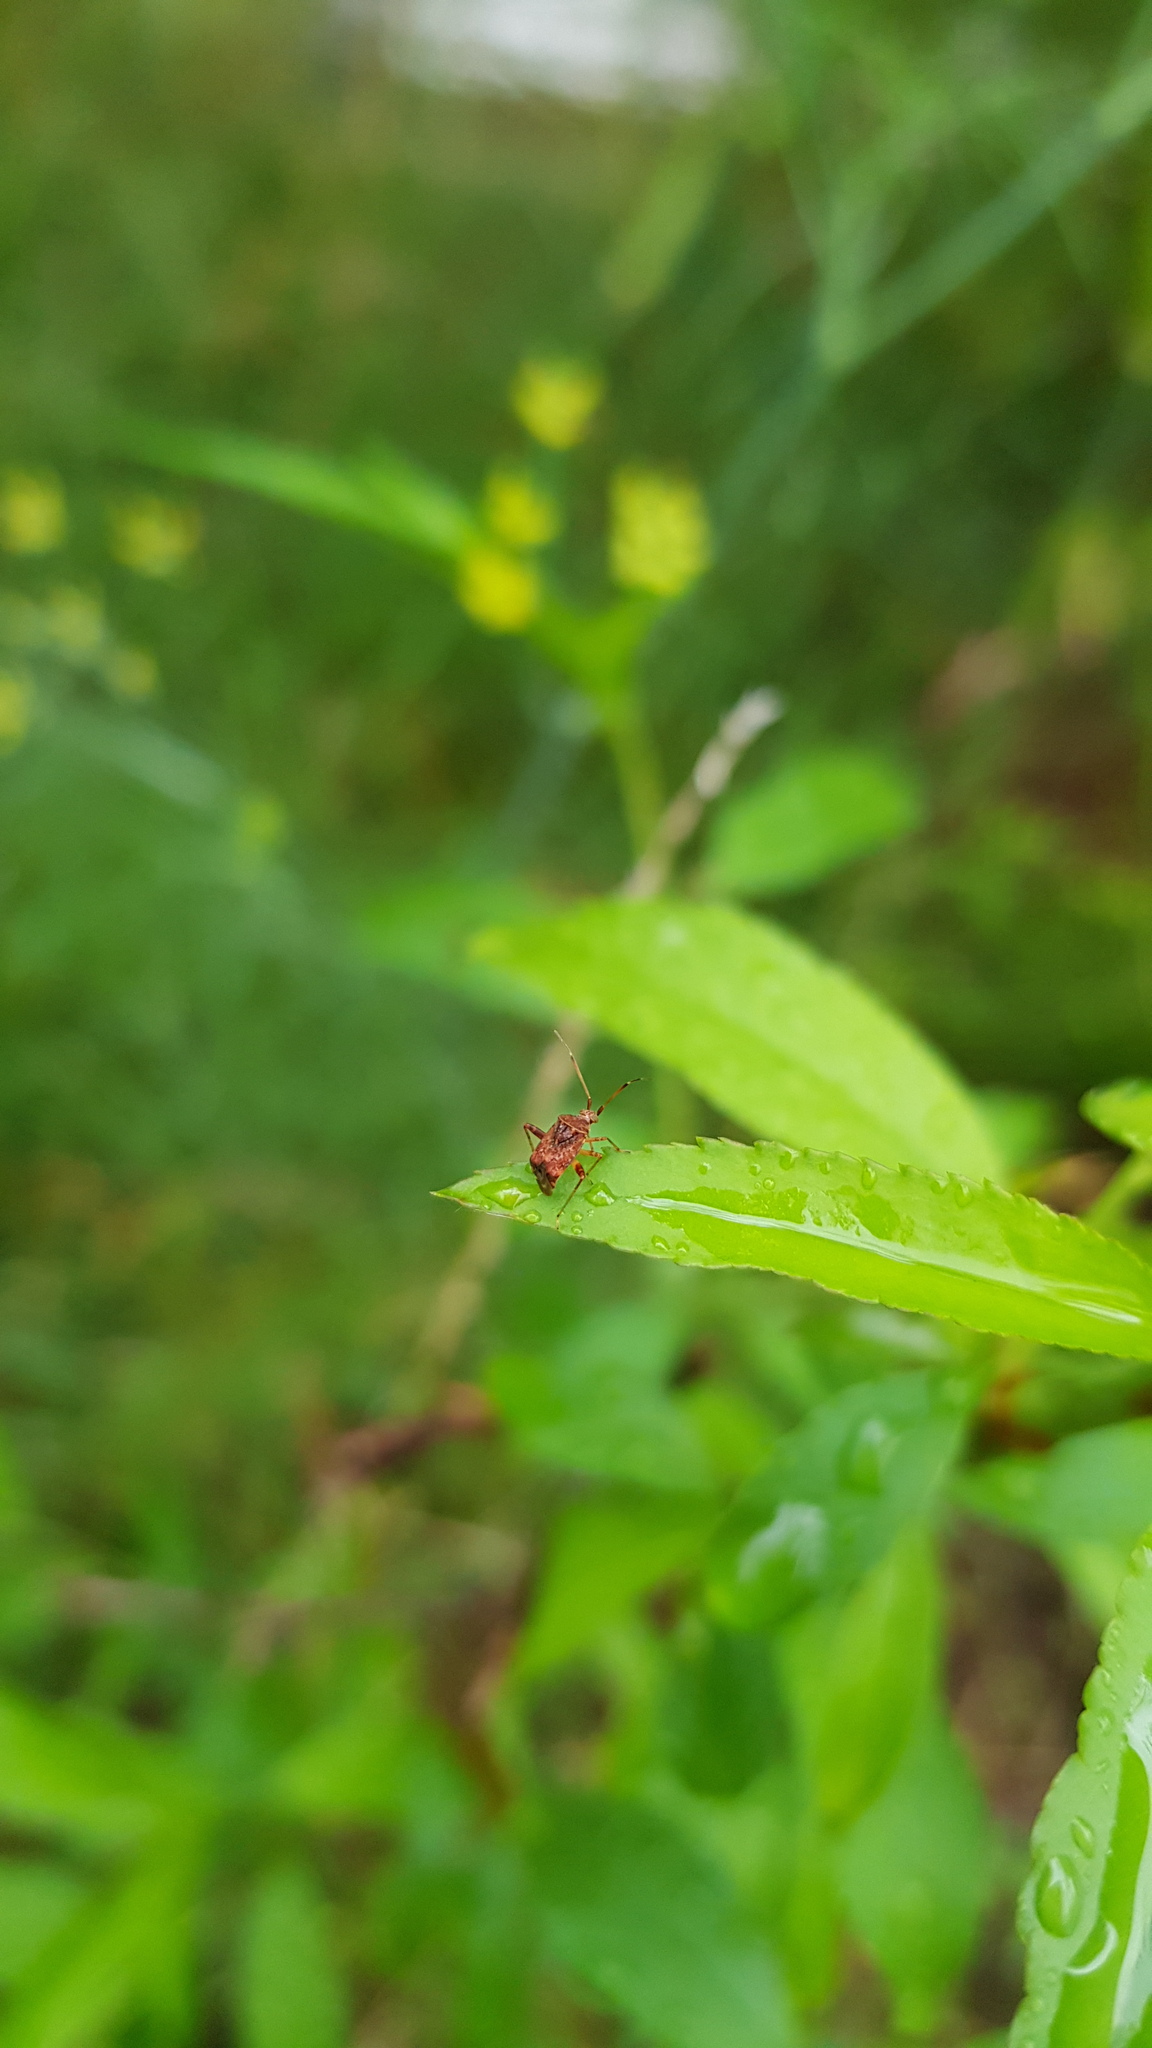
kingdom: Animalia
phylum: Arthropoda
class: Insecta
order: Hemiptera
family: Miridae
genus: Sidnia
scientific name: Sidnia kinbergi
